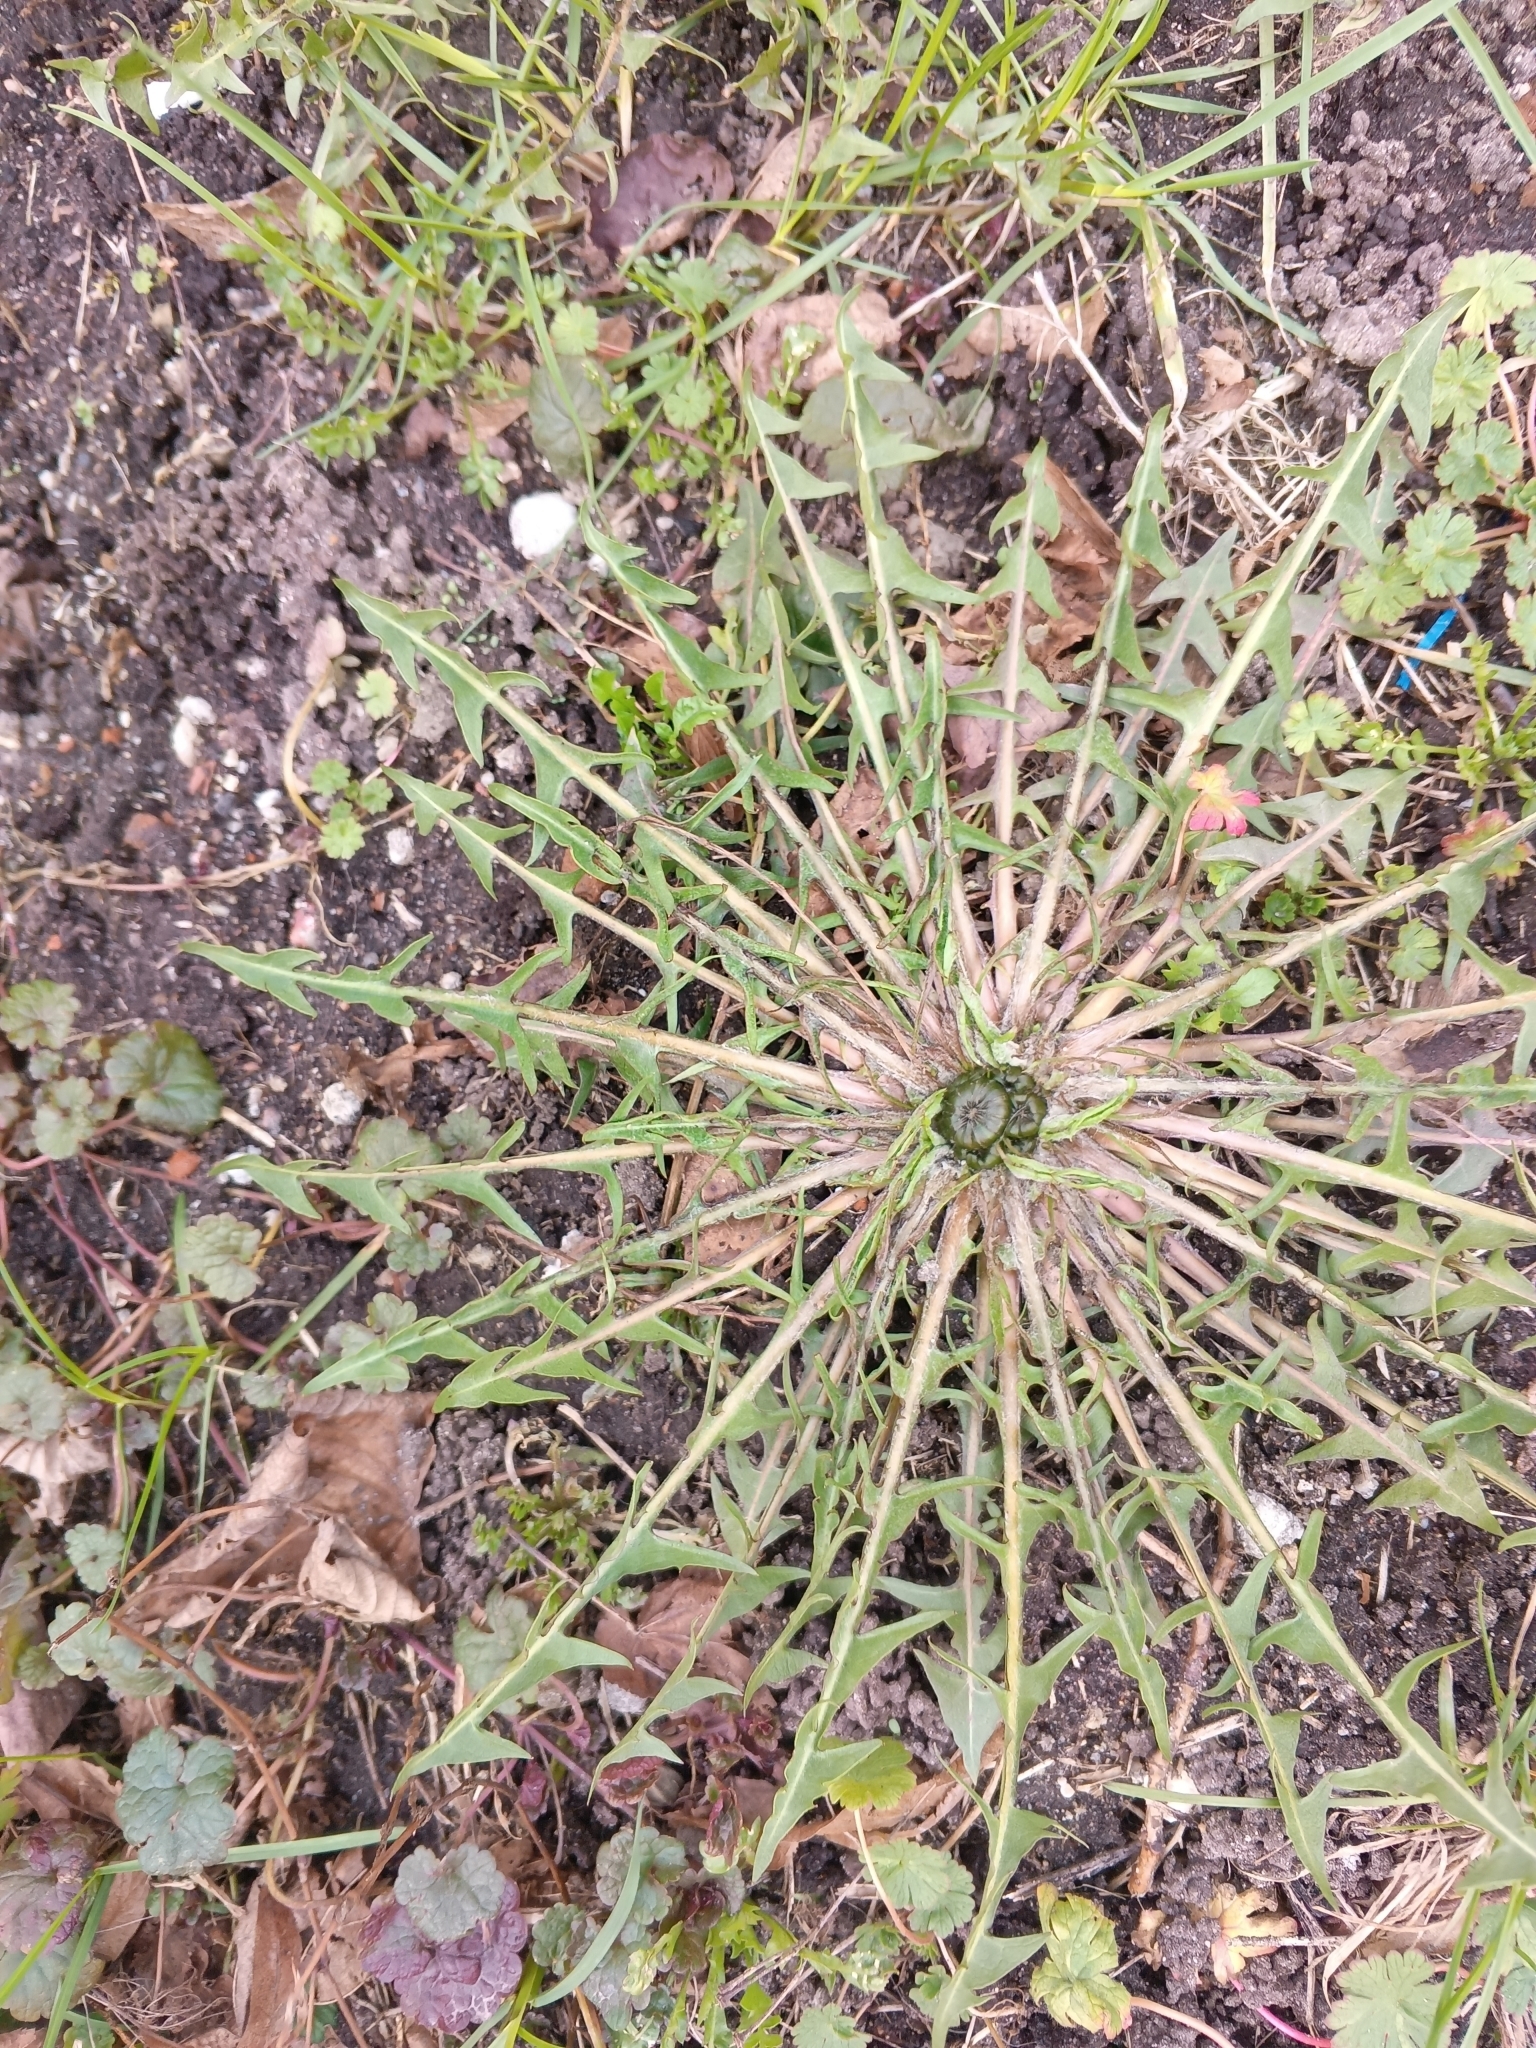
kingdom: Plantae
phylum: Tracheophyta
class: Magnoliopsida
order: Asterales
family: Asteraceae
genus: Taraxacum
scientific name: Taraxacum officinale
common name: Common dandelion
